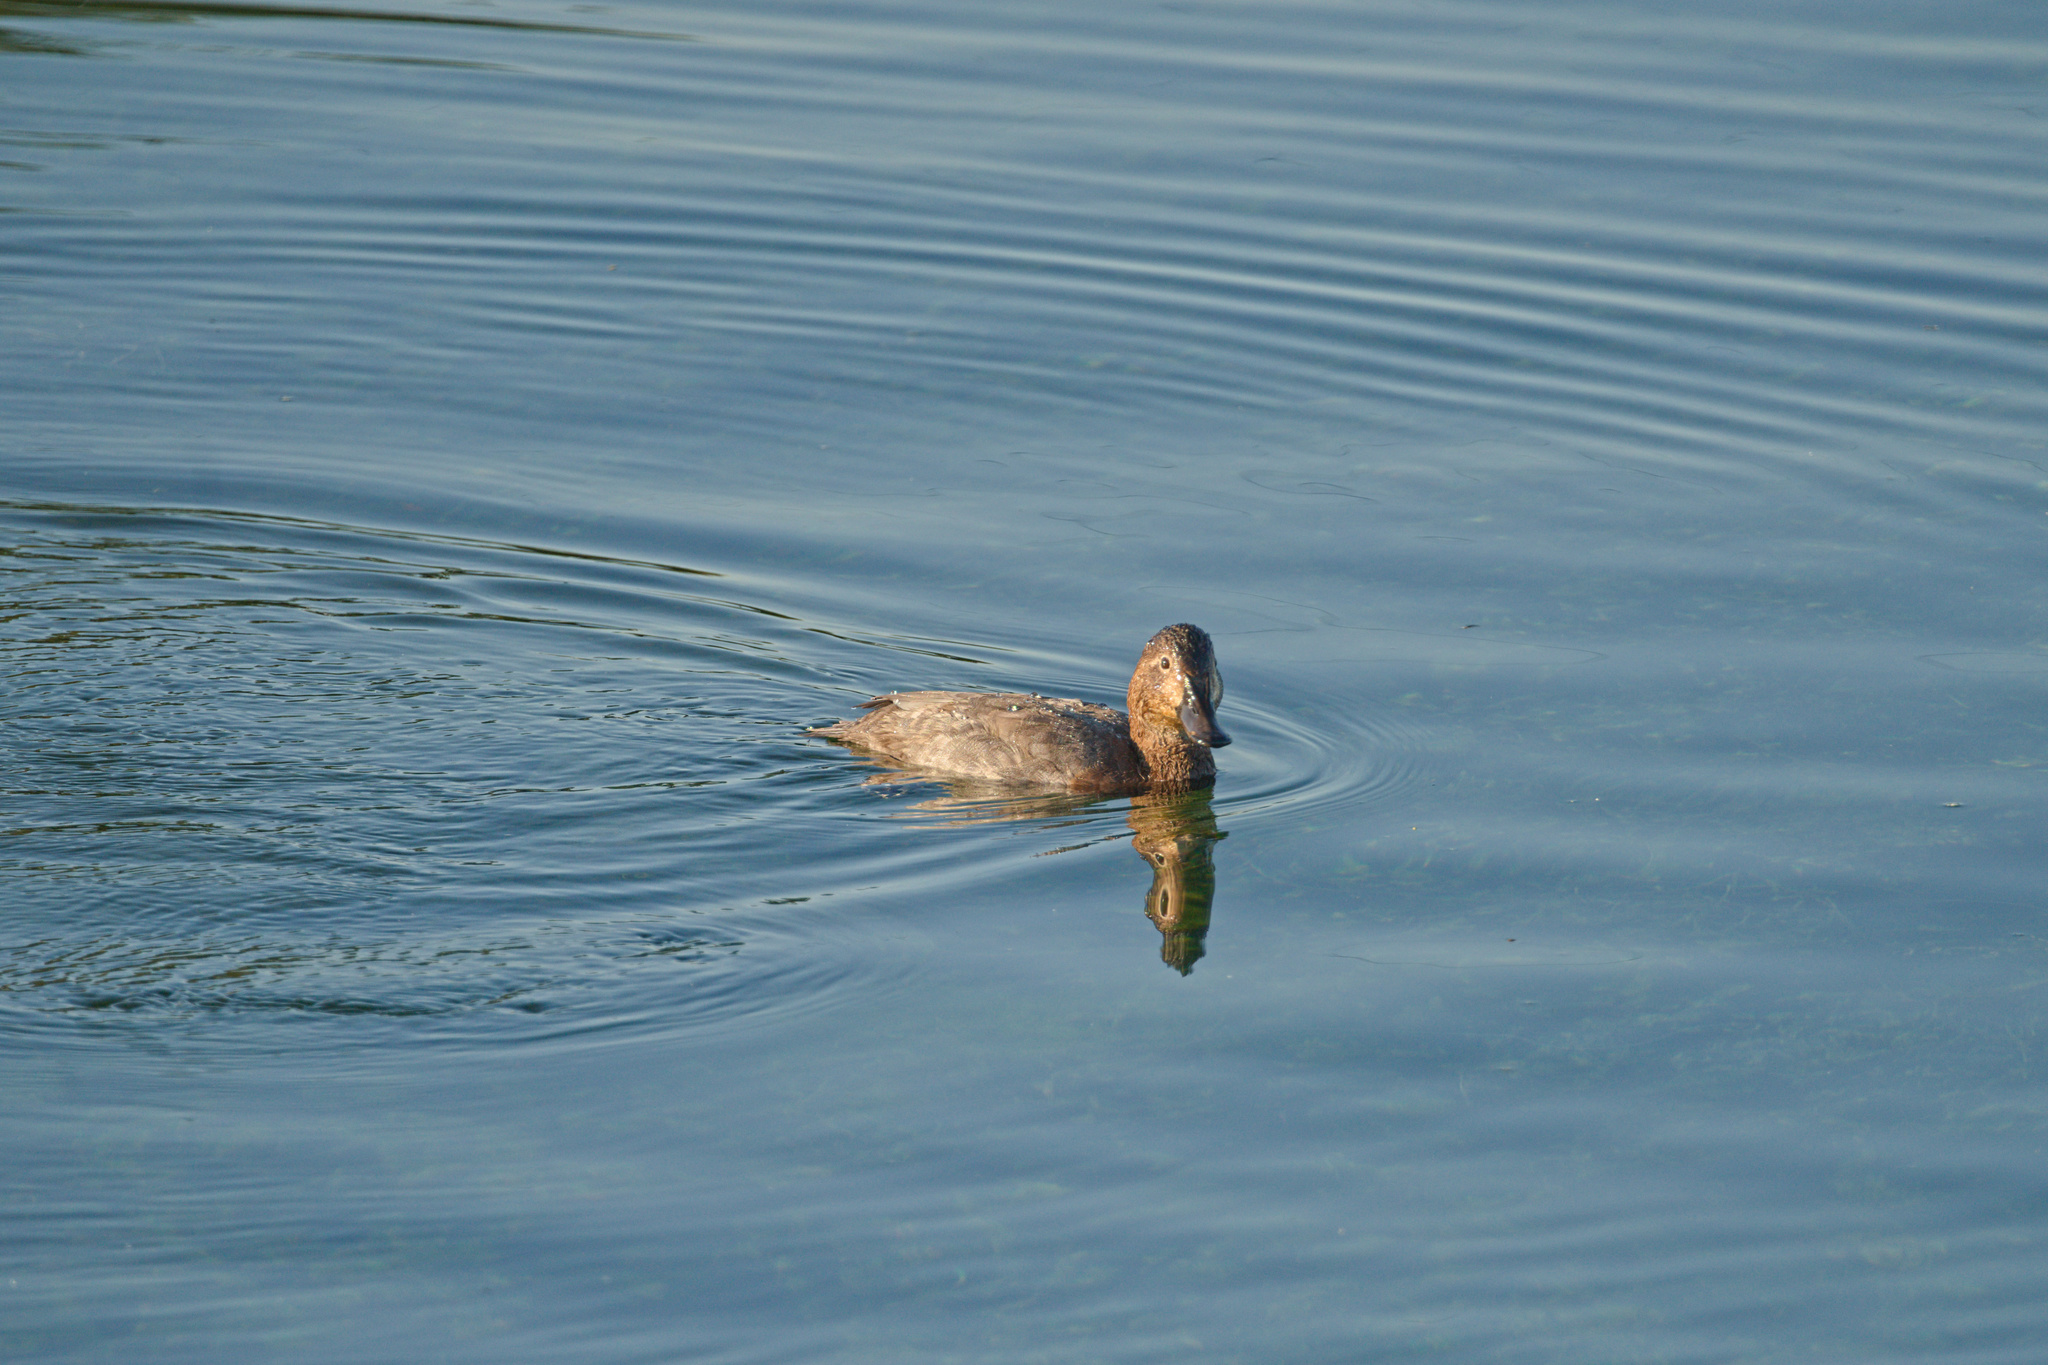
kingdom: Animalia
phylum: Chordata
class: Aves
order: Anseriformes
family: Anatidae
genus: Aythya
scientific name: Aythya ferina
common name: Common pochard
